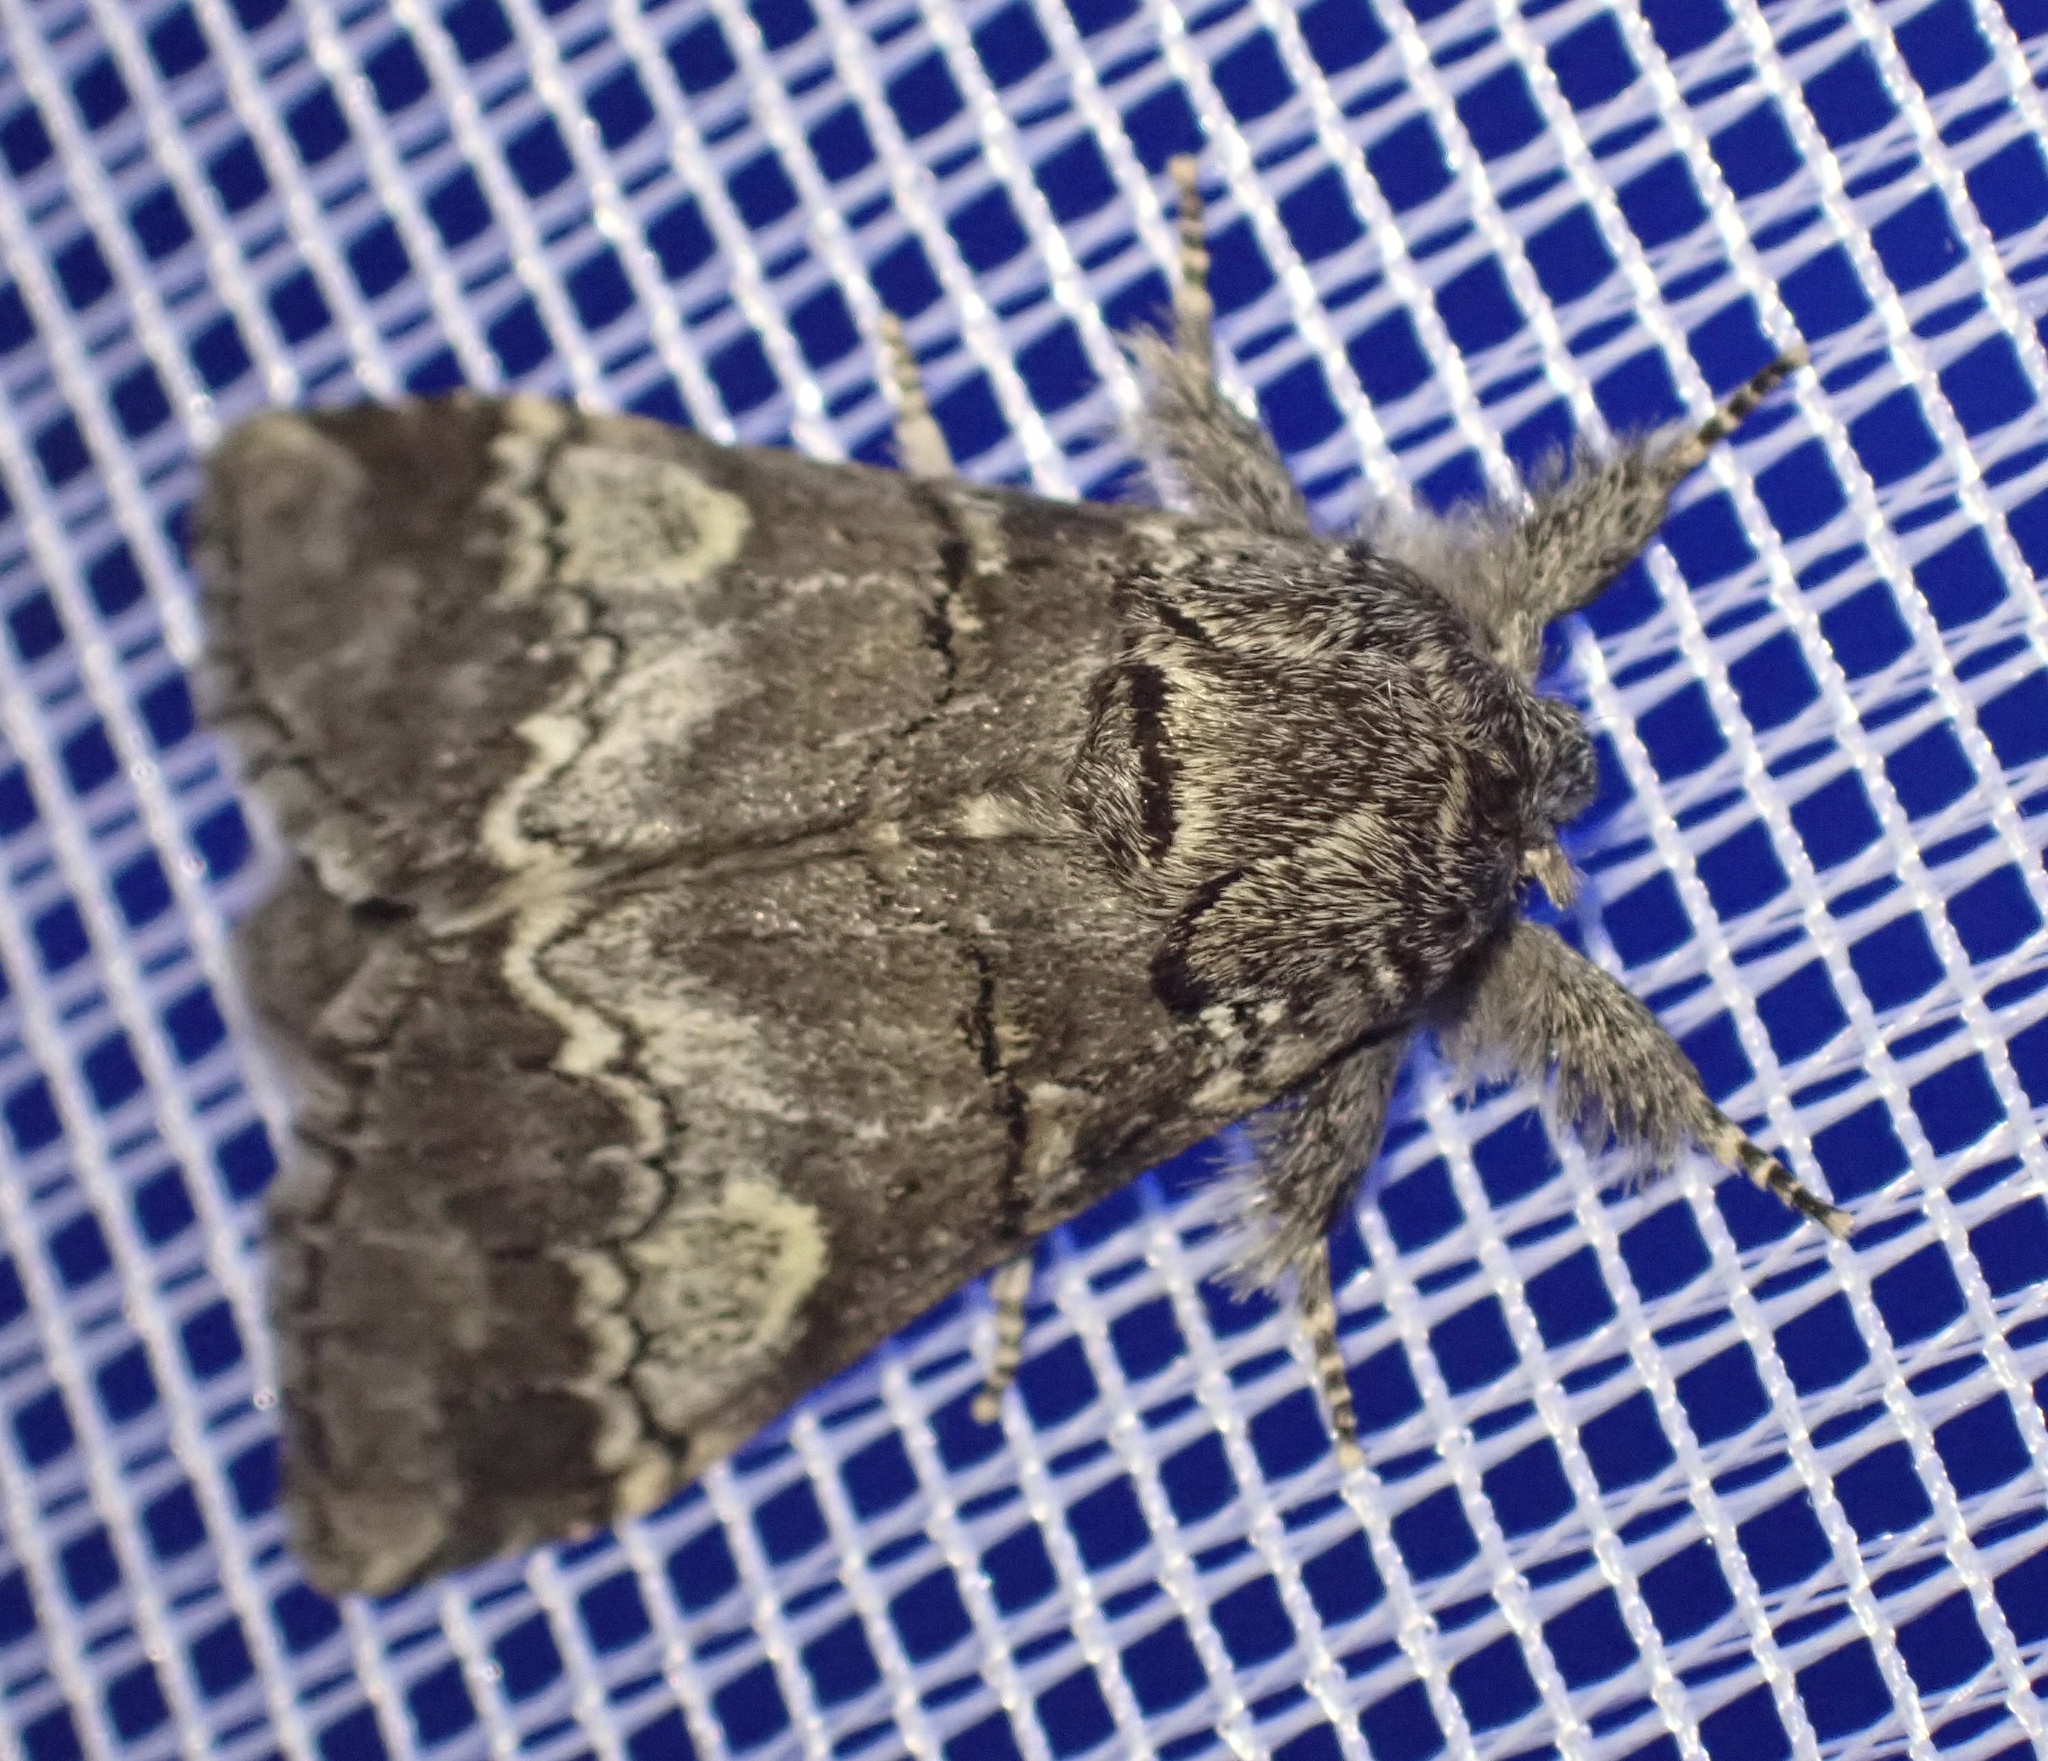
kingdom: Animalia
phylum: Arthropoda
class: Insecta
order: Lepidoptera
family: Notodontidae
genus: Drymonia
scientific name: Drymonia querna
